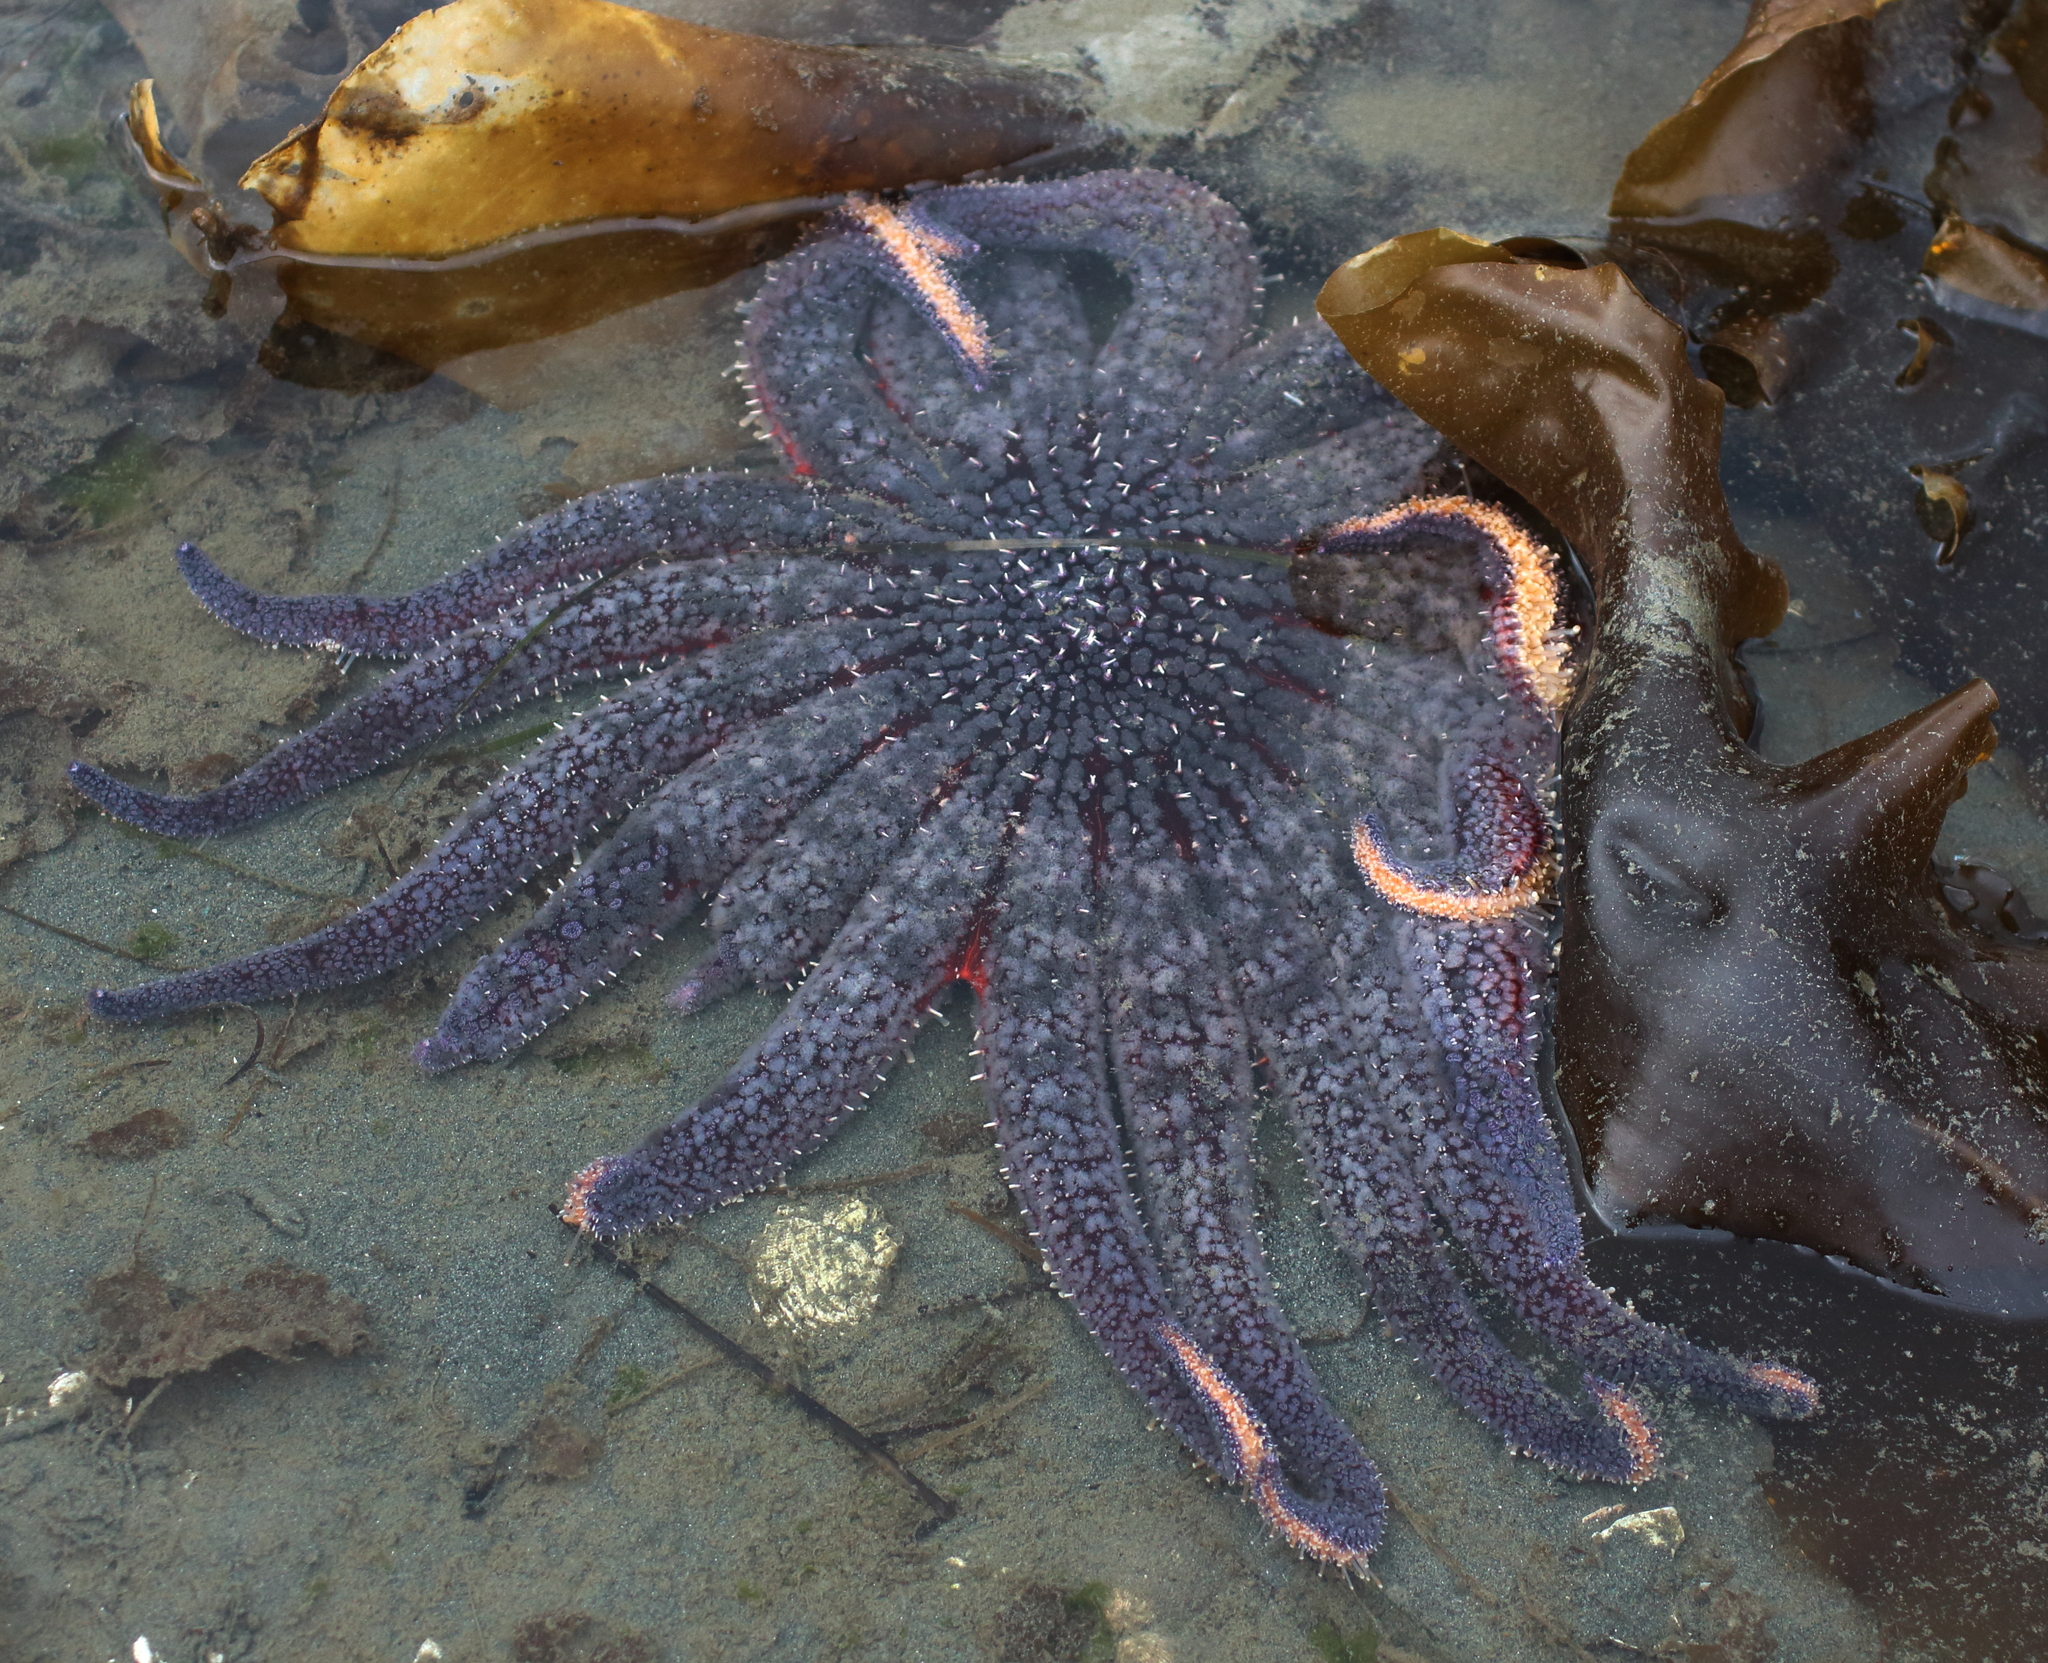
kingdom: Animalia
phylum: Echinodermata
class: Asteroidea
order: Forcipulatida
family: Asteriidae
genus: Pycnopodia
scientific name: Pycnopodia helianthoides
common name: Rag mop
